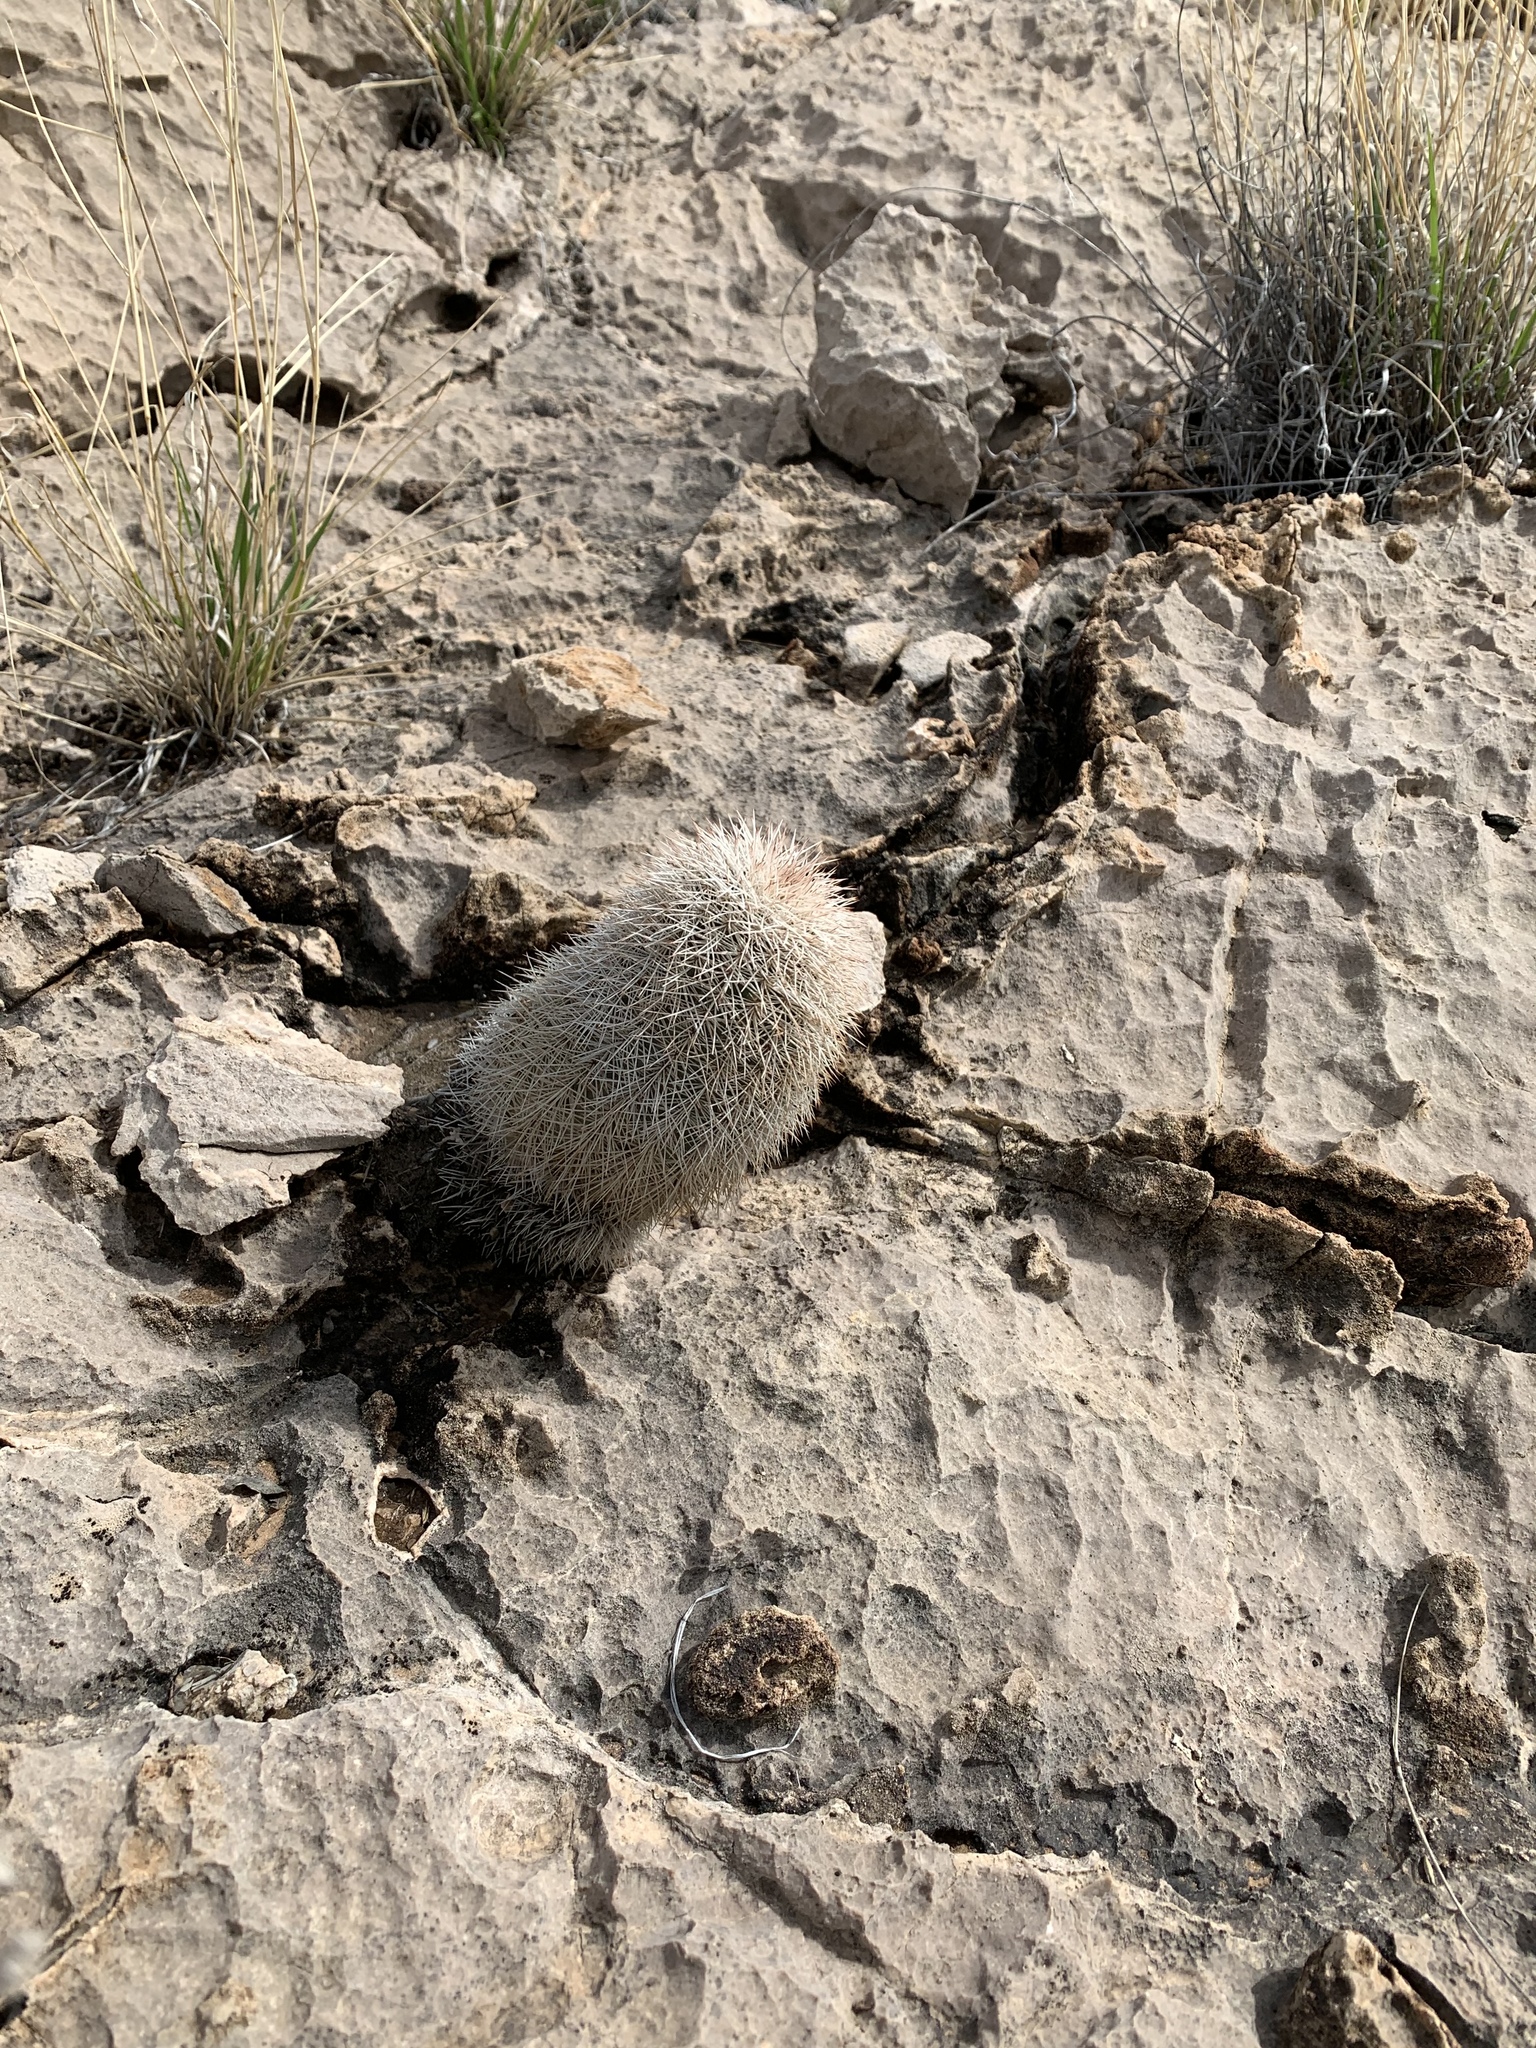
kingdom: Plantae
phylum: Tracheophyta
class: Magnoliopsida
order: Caryophyllales
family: Cactaceae
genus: Echinocereus
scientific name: Echinocereus dasyacanthus
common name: Spiny hedgehog cactus
